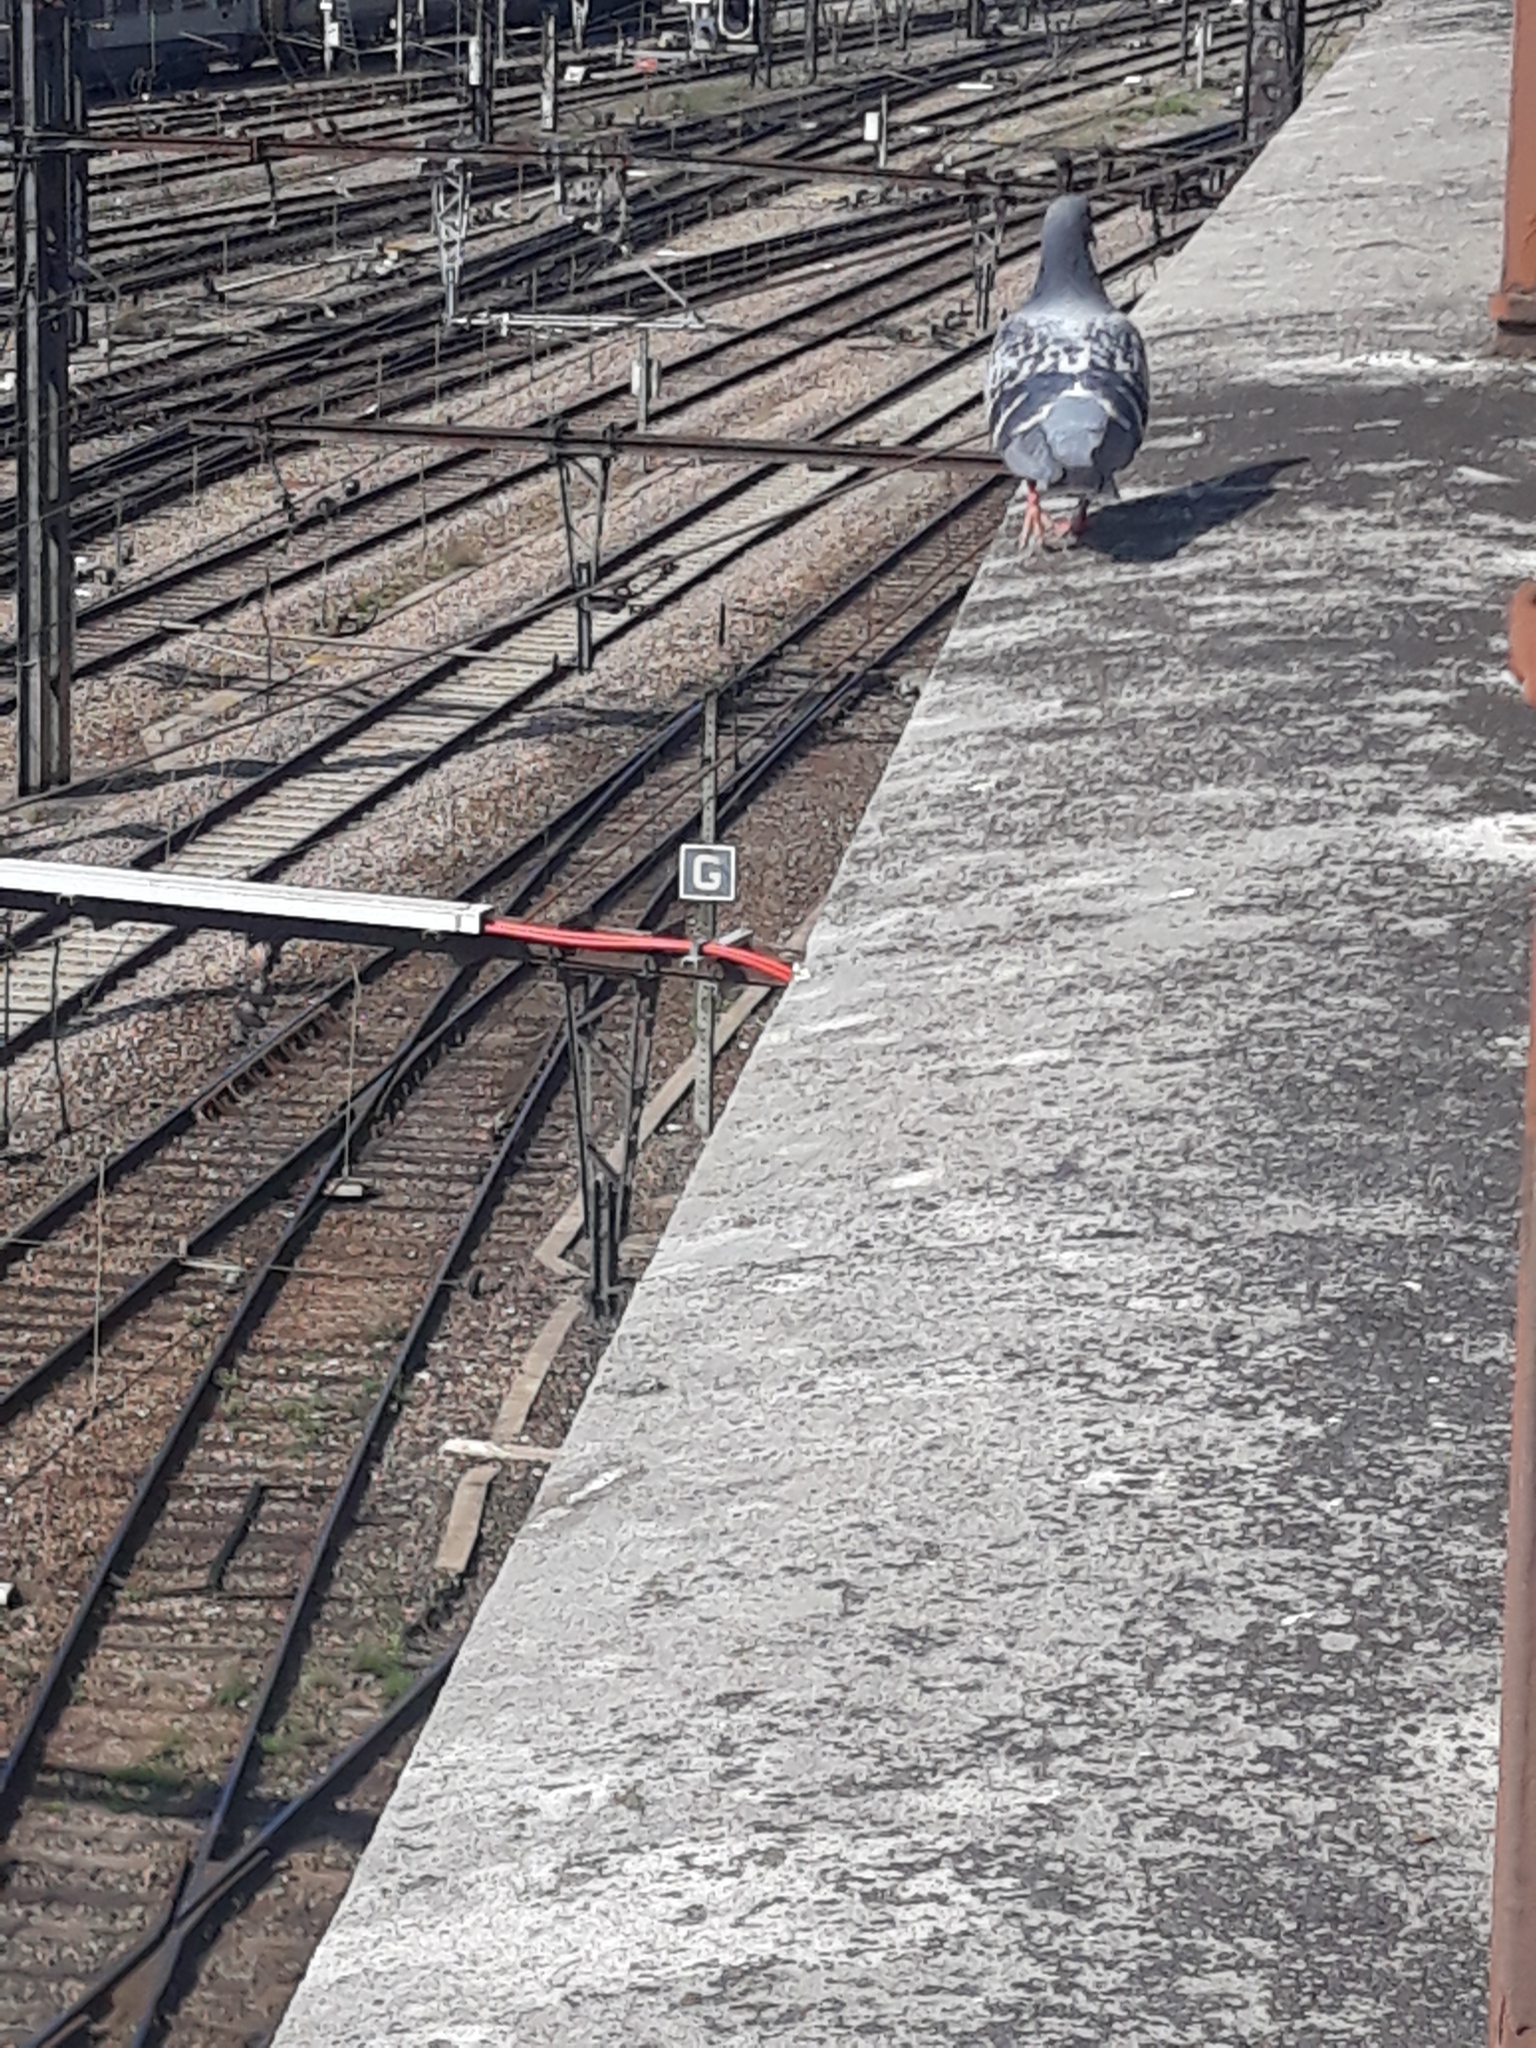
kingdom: Animalia
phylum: Chordata
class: Aves
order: Columbiformes
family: Columbidae
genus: Columba
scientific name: Columba livia
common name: Rock pigeon
